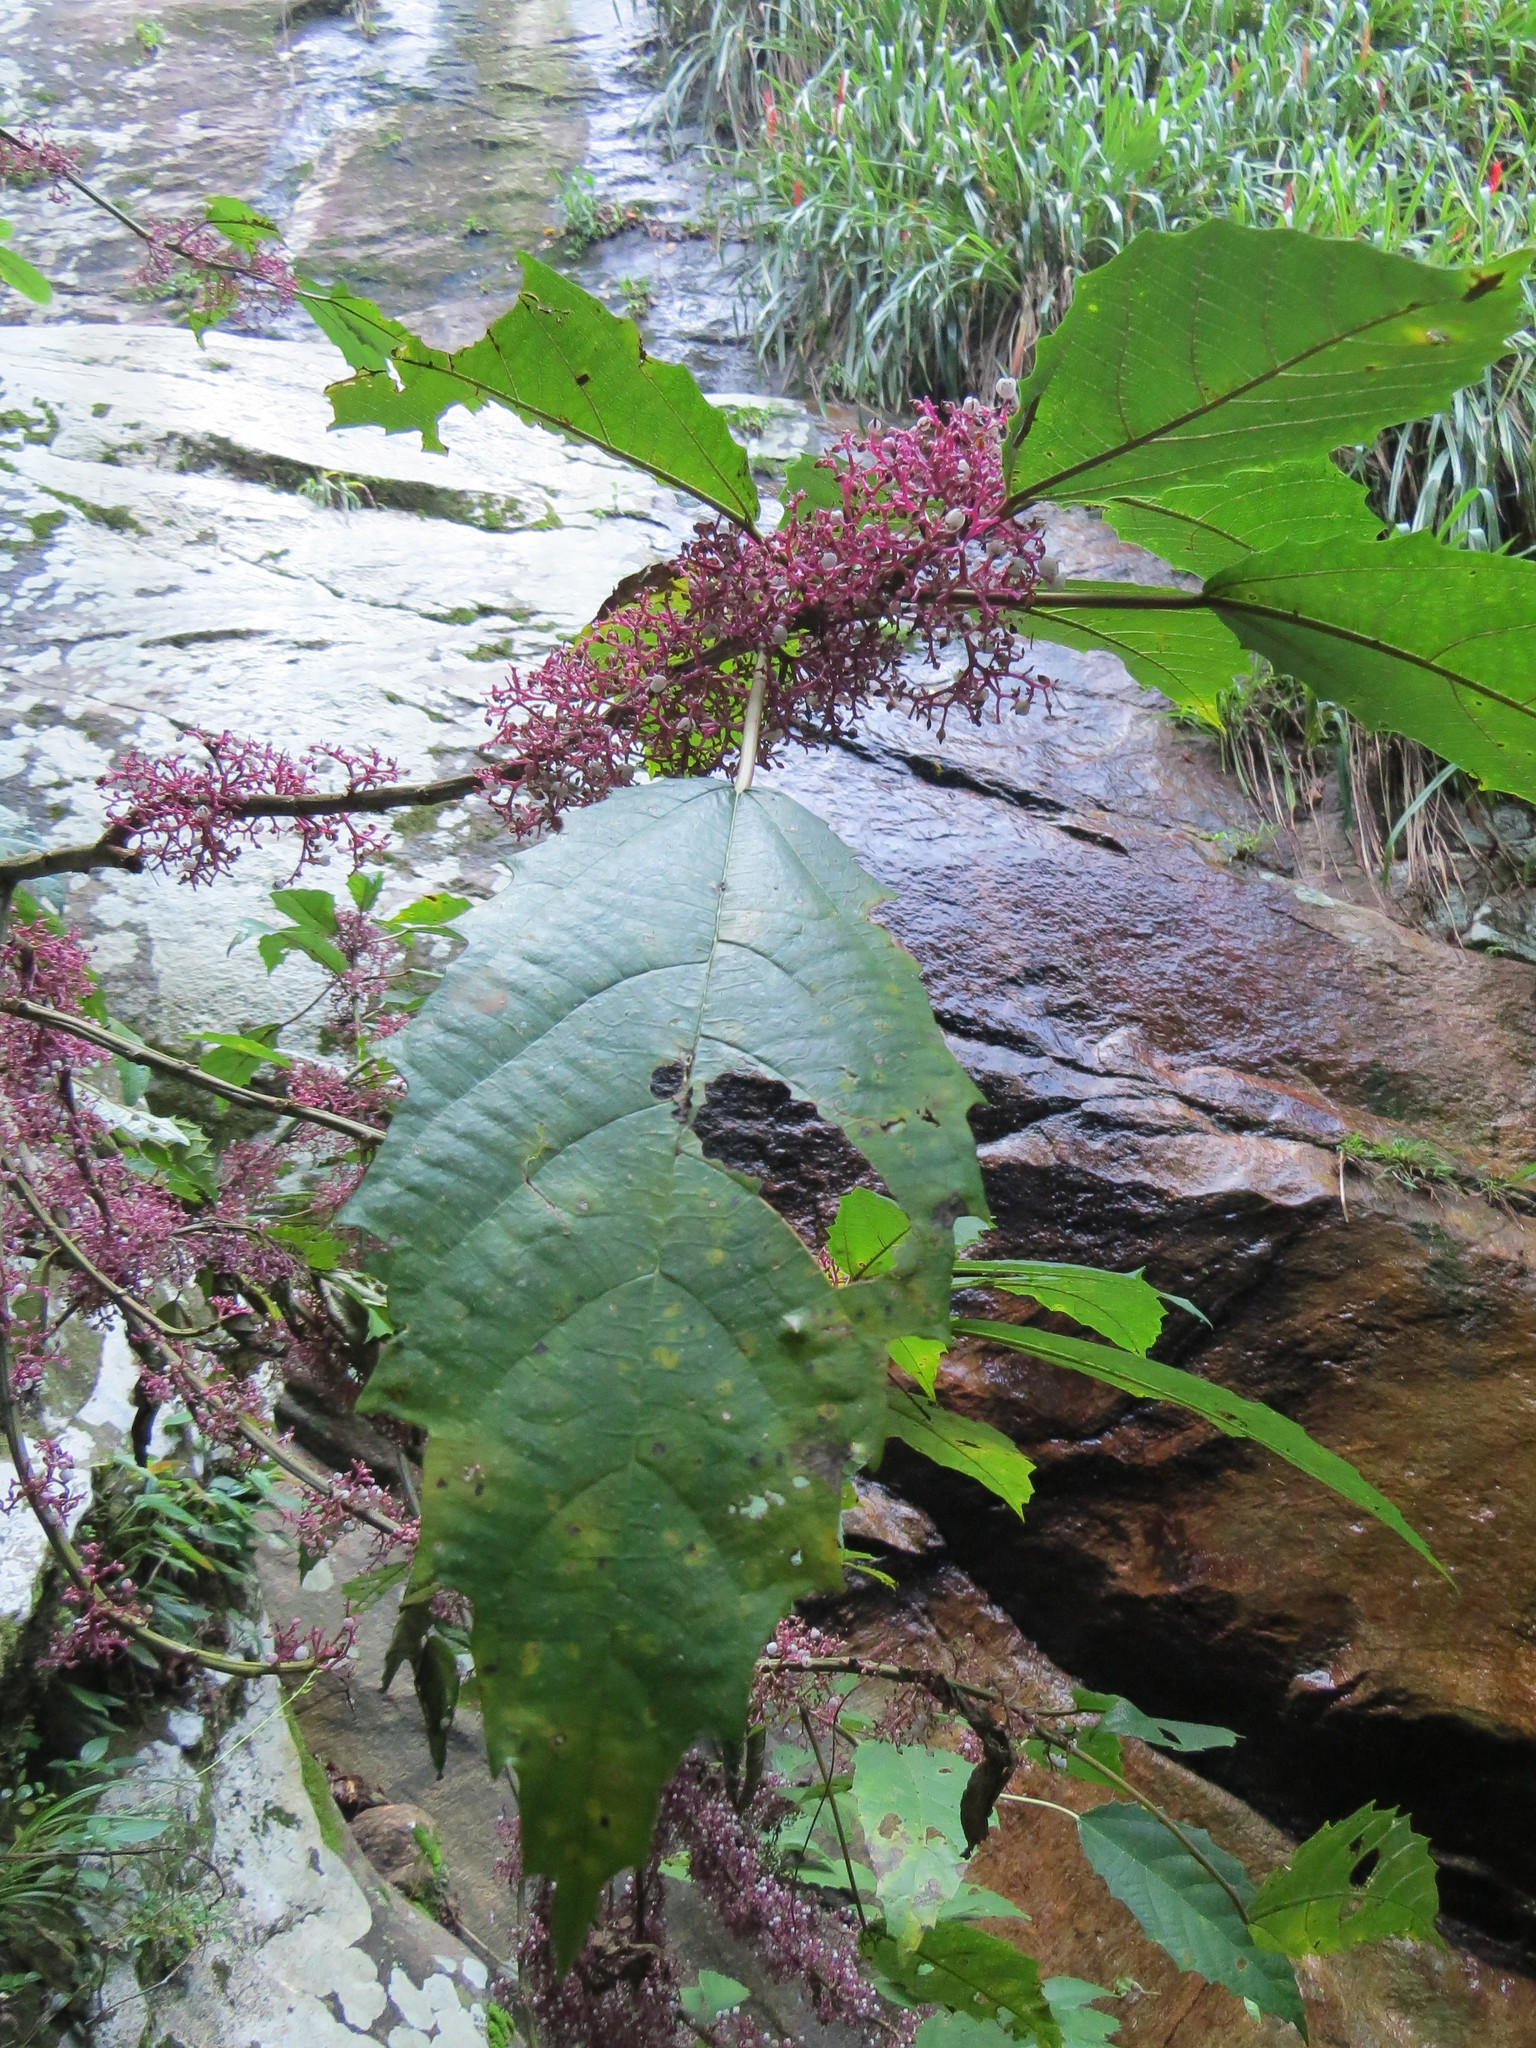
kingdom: Plantae
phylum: Tracheophyta
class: Magnoliopsida
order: Rosales
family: Urticaceae
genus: Urera
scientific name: Urera nitida
